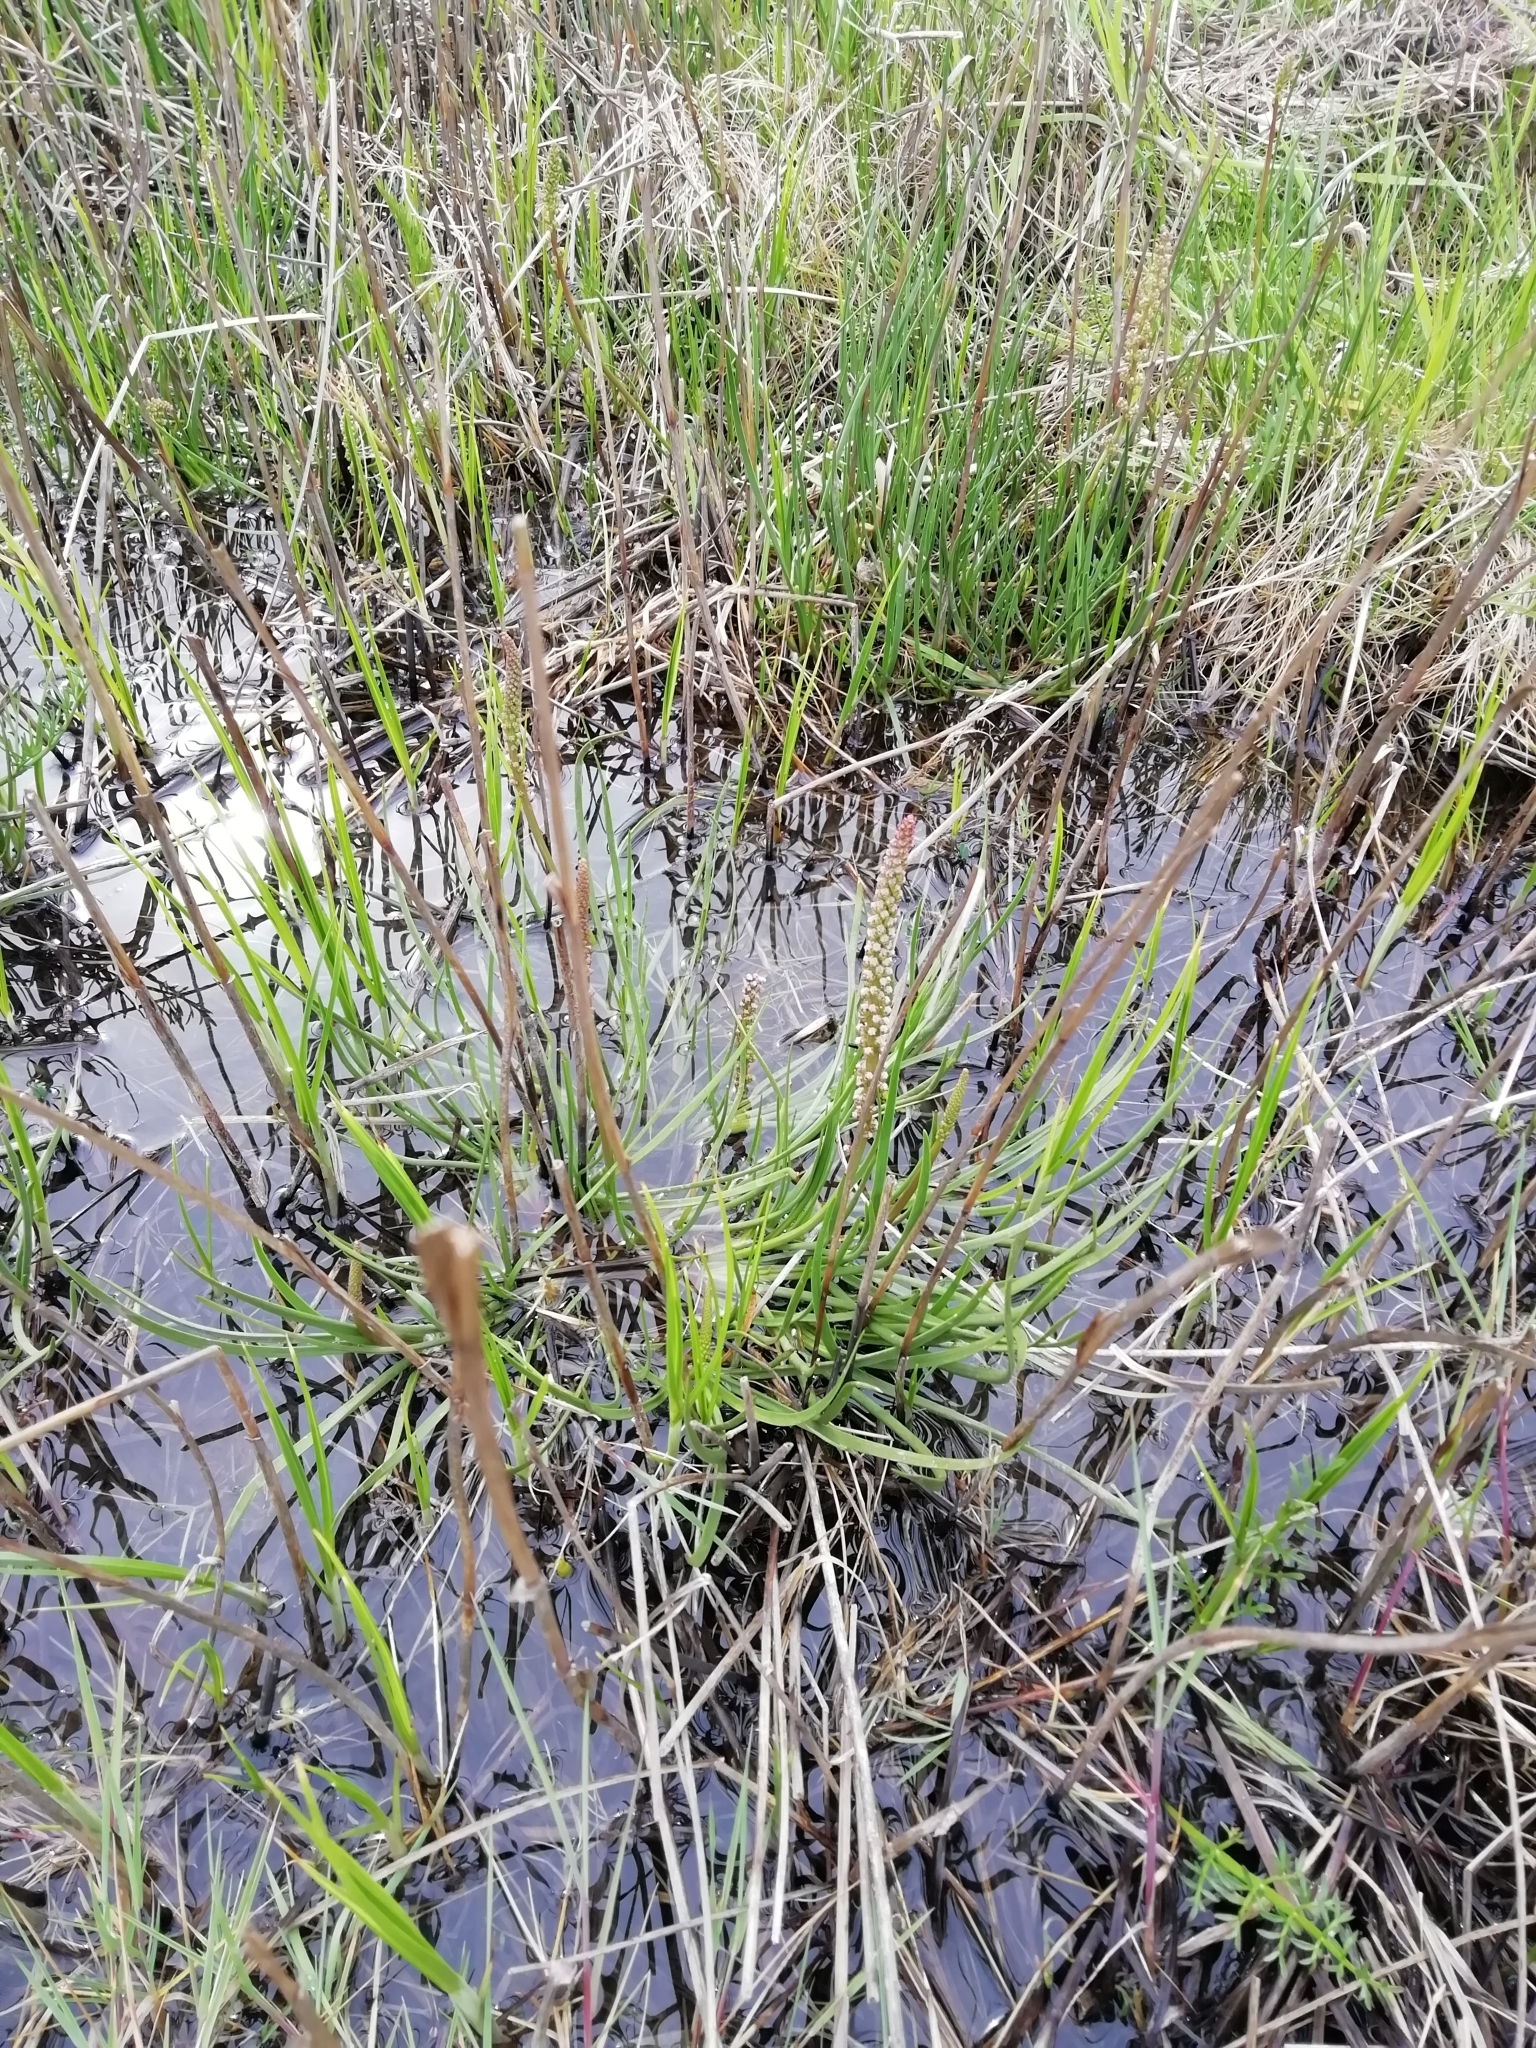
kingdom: Plantae
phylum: Tracheophyta
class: Liliopsida
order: Alismatales
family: Juncaginaceae
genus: Triglochin
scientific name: Triglochin maritima
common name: Sea arrowgrass
